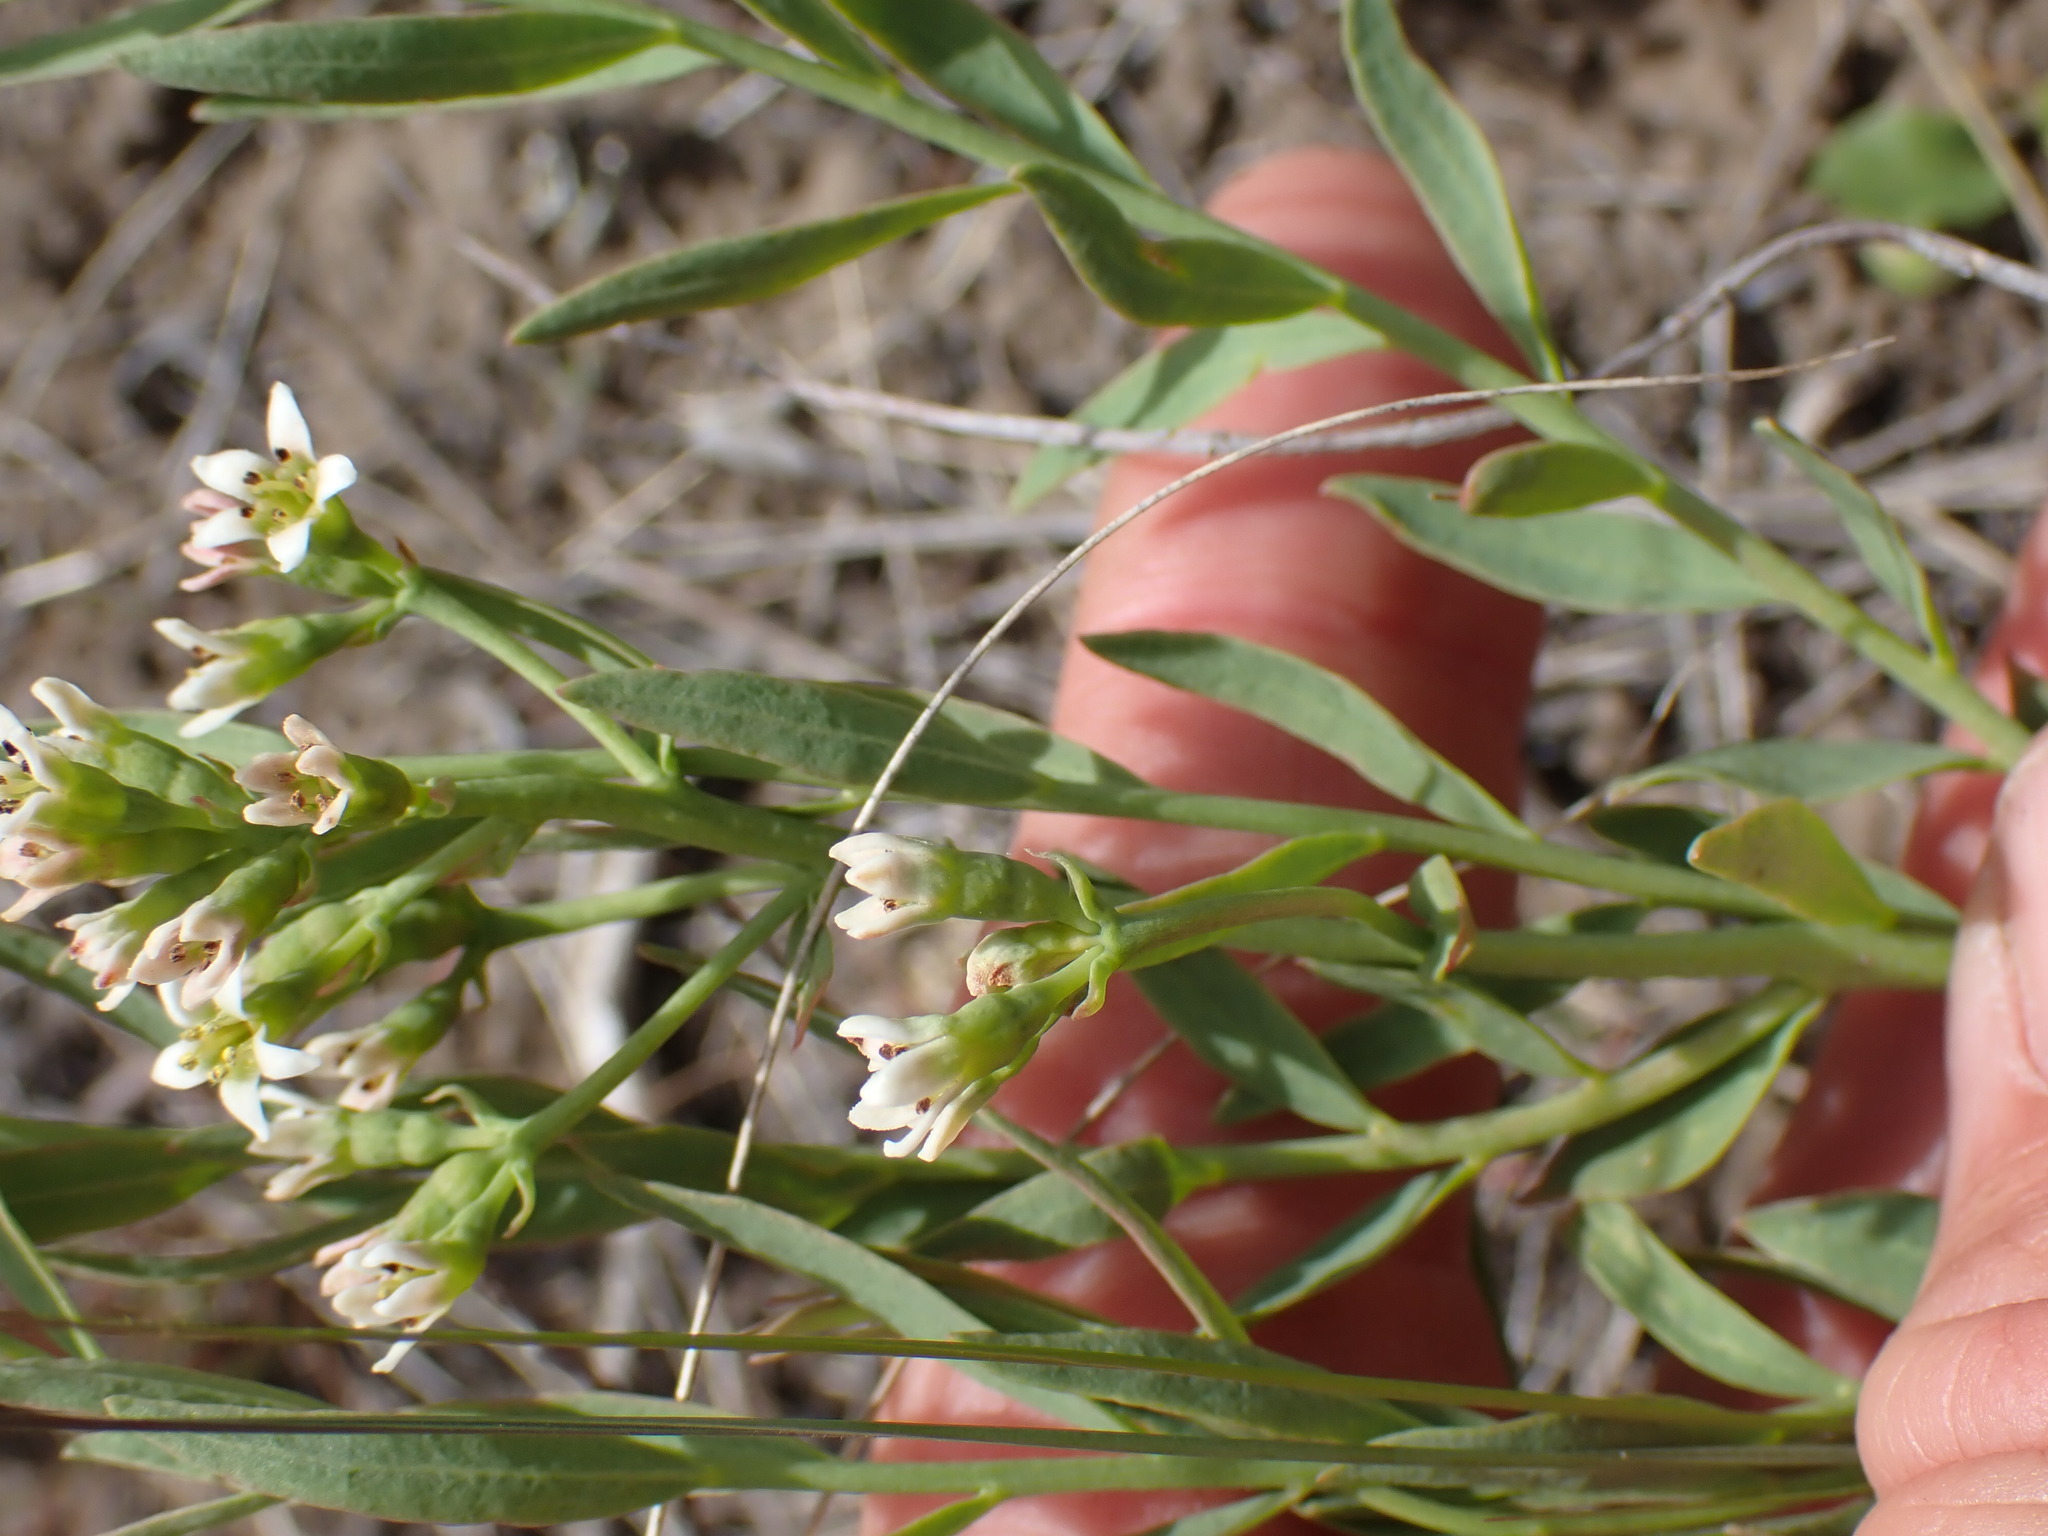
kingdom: Plantae
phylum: Tracheophyta
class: Magnoliopsida
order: Santalales
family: Comandraceae
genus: Comandra
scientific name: Comandra umbellata
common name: Bastard toadflax
